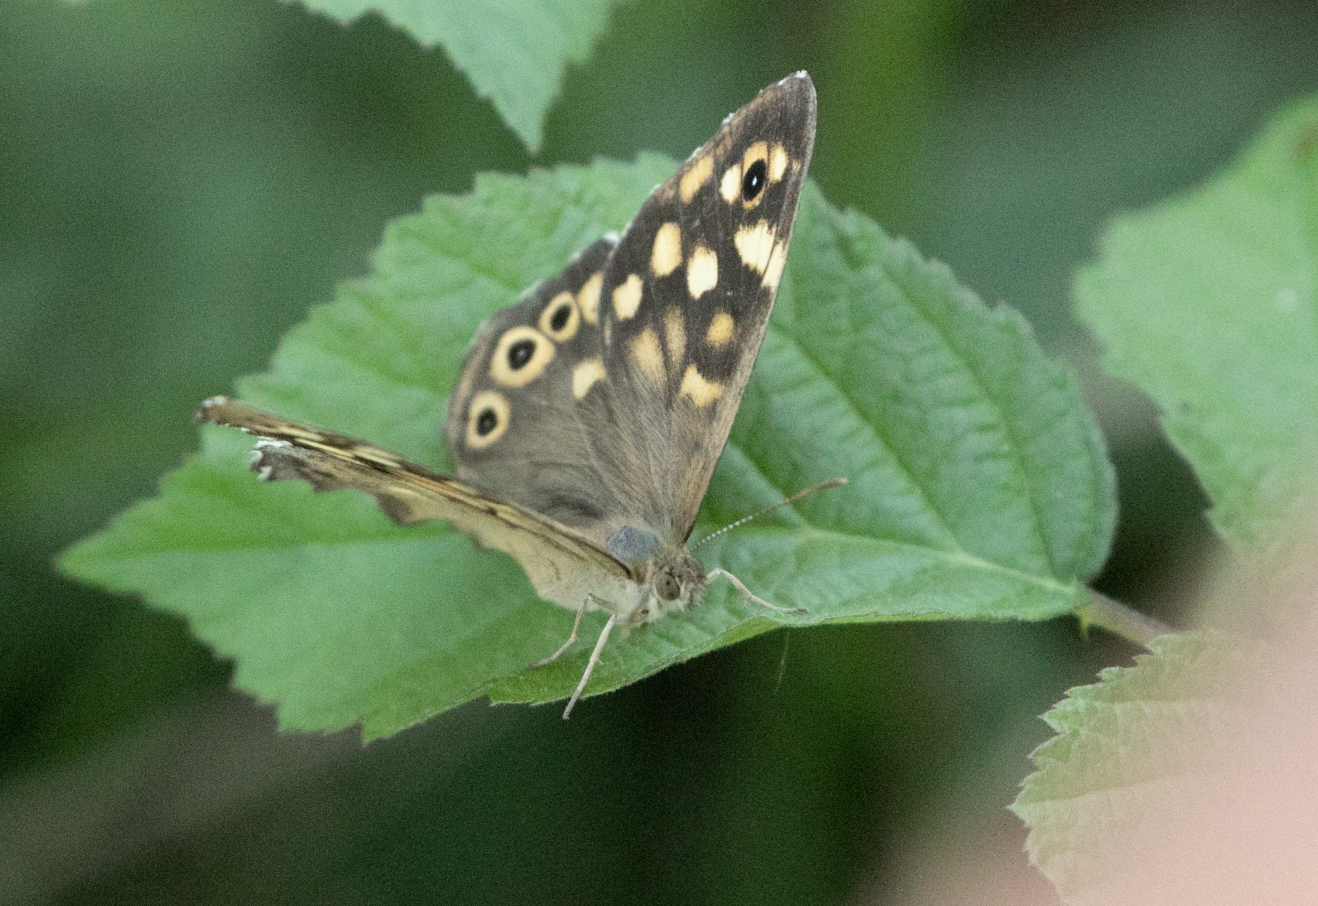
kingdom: Animalia
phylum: Arthropoda
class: Insecta
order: Lepidoptera
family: Nymphalidae
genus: Pararge
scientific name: Pararge aegeria
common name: Speckled wood
